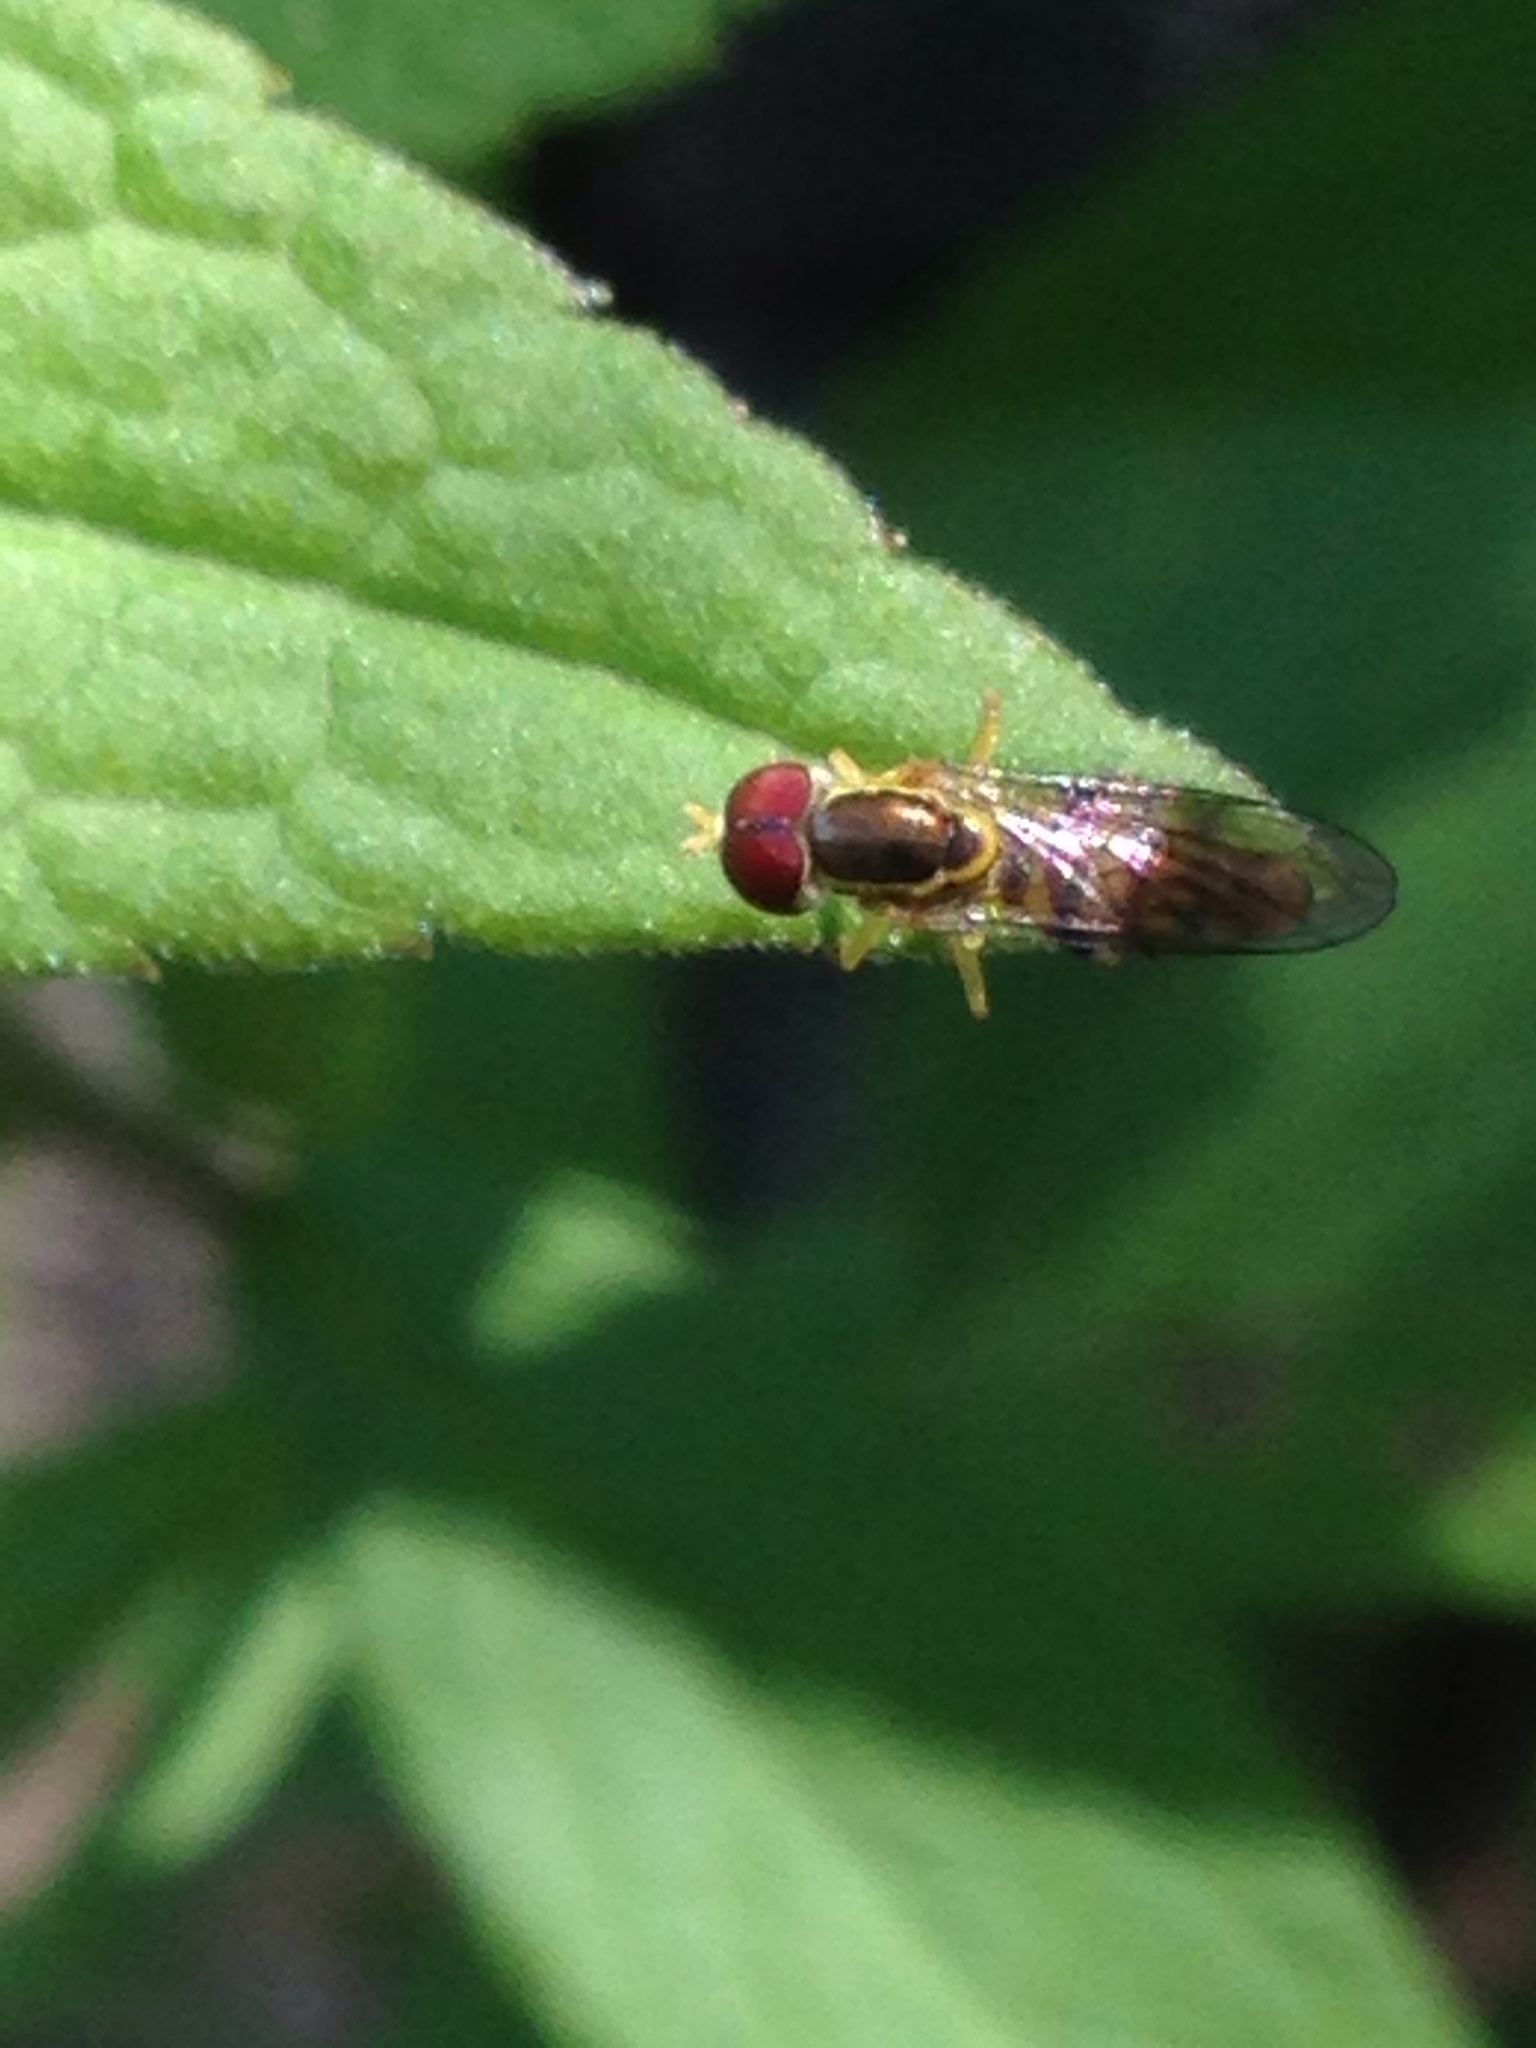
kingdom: Animalia
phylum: Arthropoda
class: Insecta
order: Diptera
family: Syrphidae
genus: Toxomerus
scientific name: Toxomerus geminatus
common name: Eastern calligrapher
